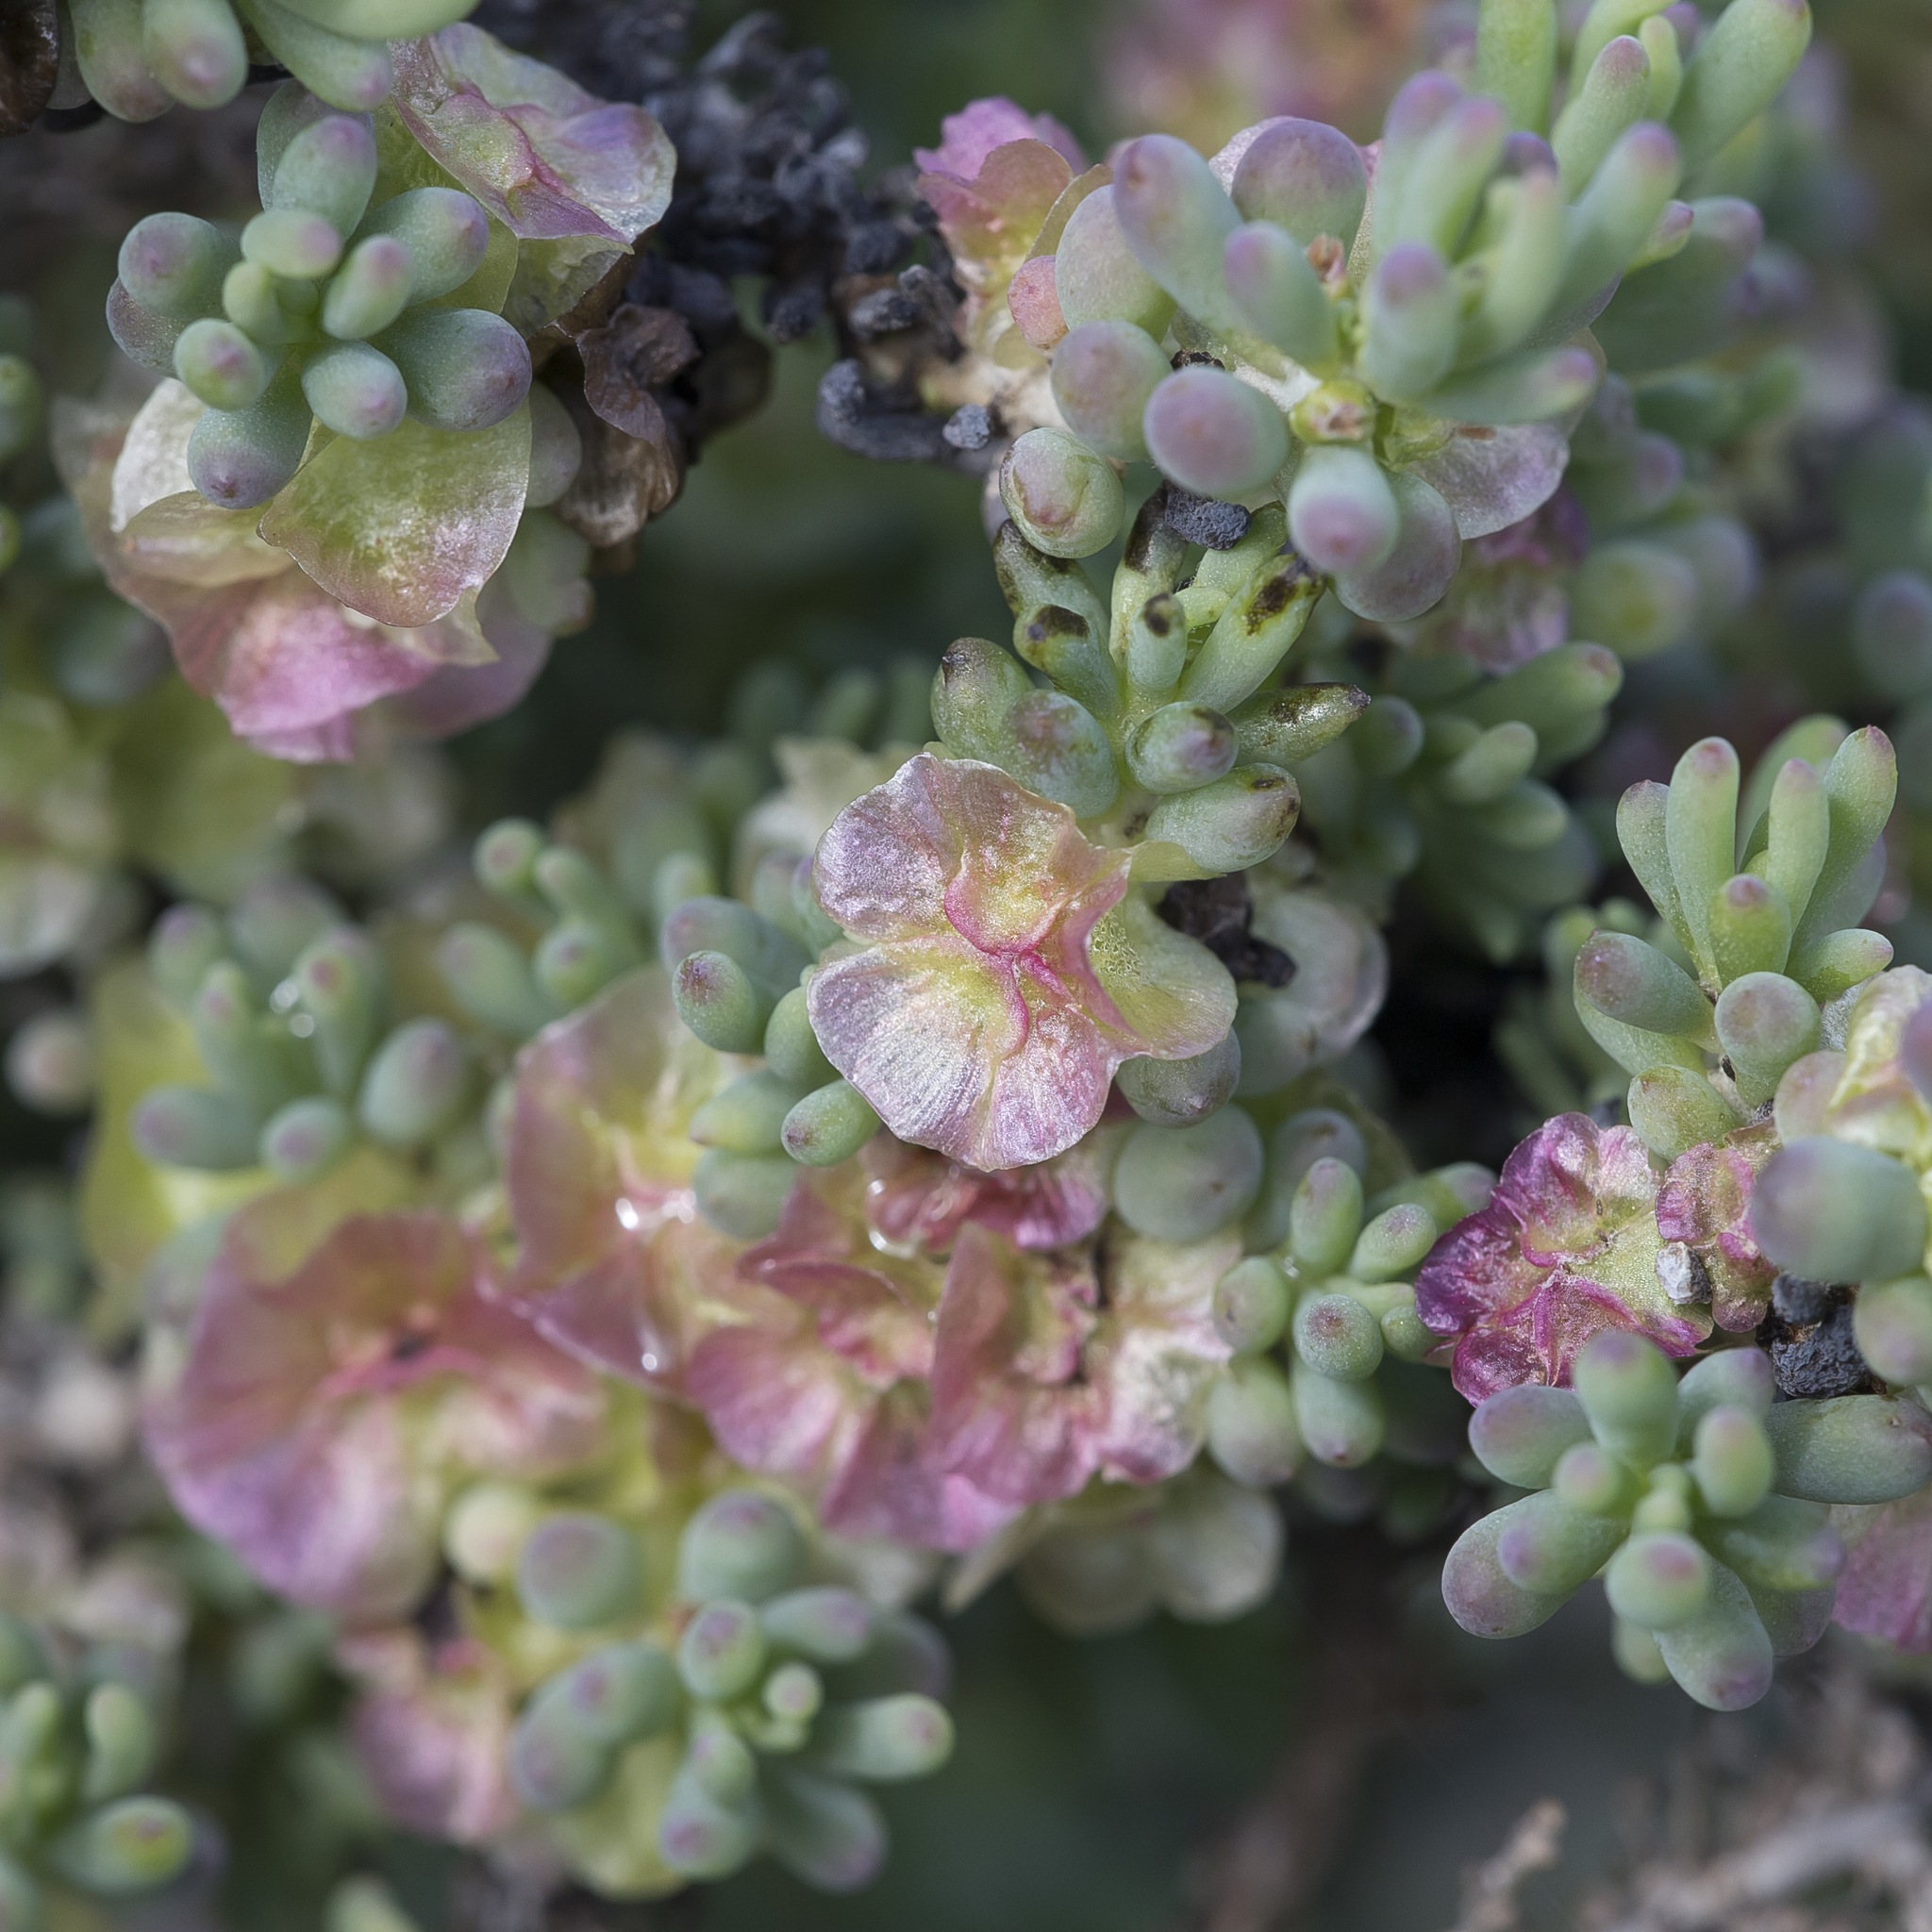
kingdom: Plantae
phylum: Tracheophyta
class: Magnoliopsida
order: Caryophyllales
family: Amaranthaceae
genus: Maireana
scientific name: Maireana erioclada
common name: Rosy bluebush
